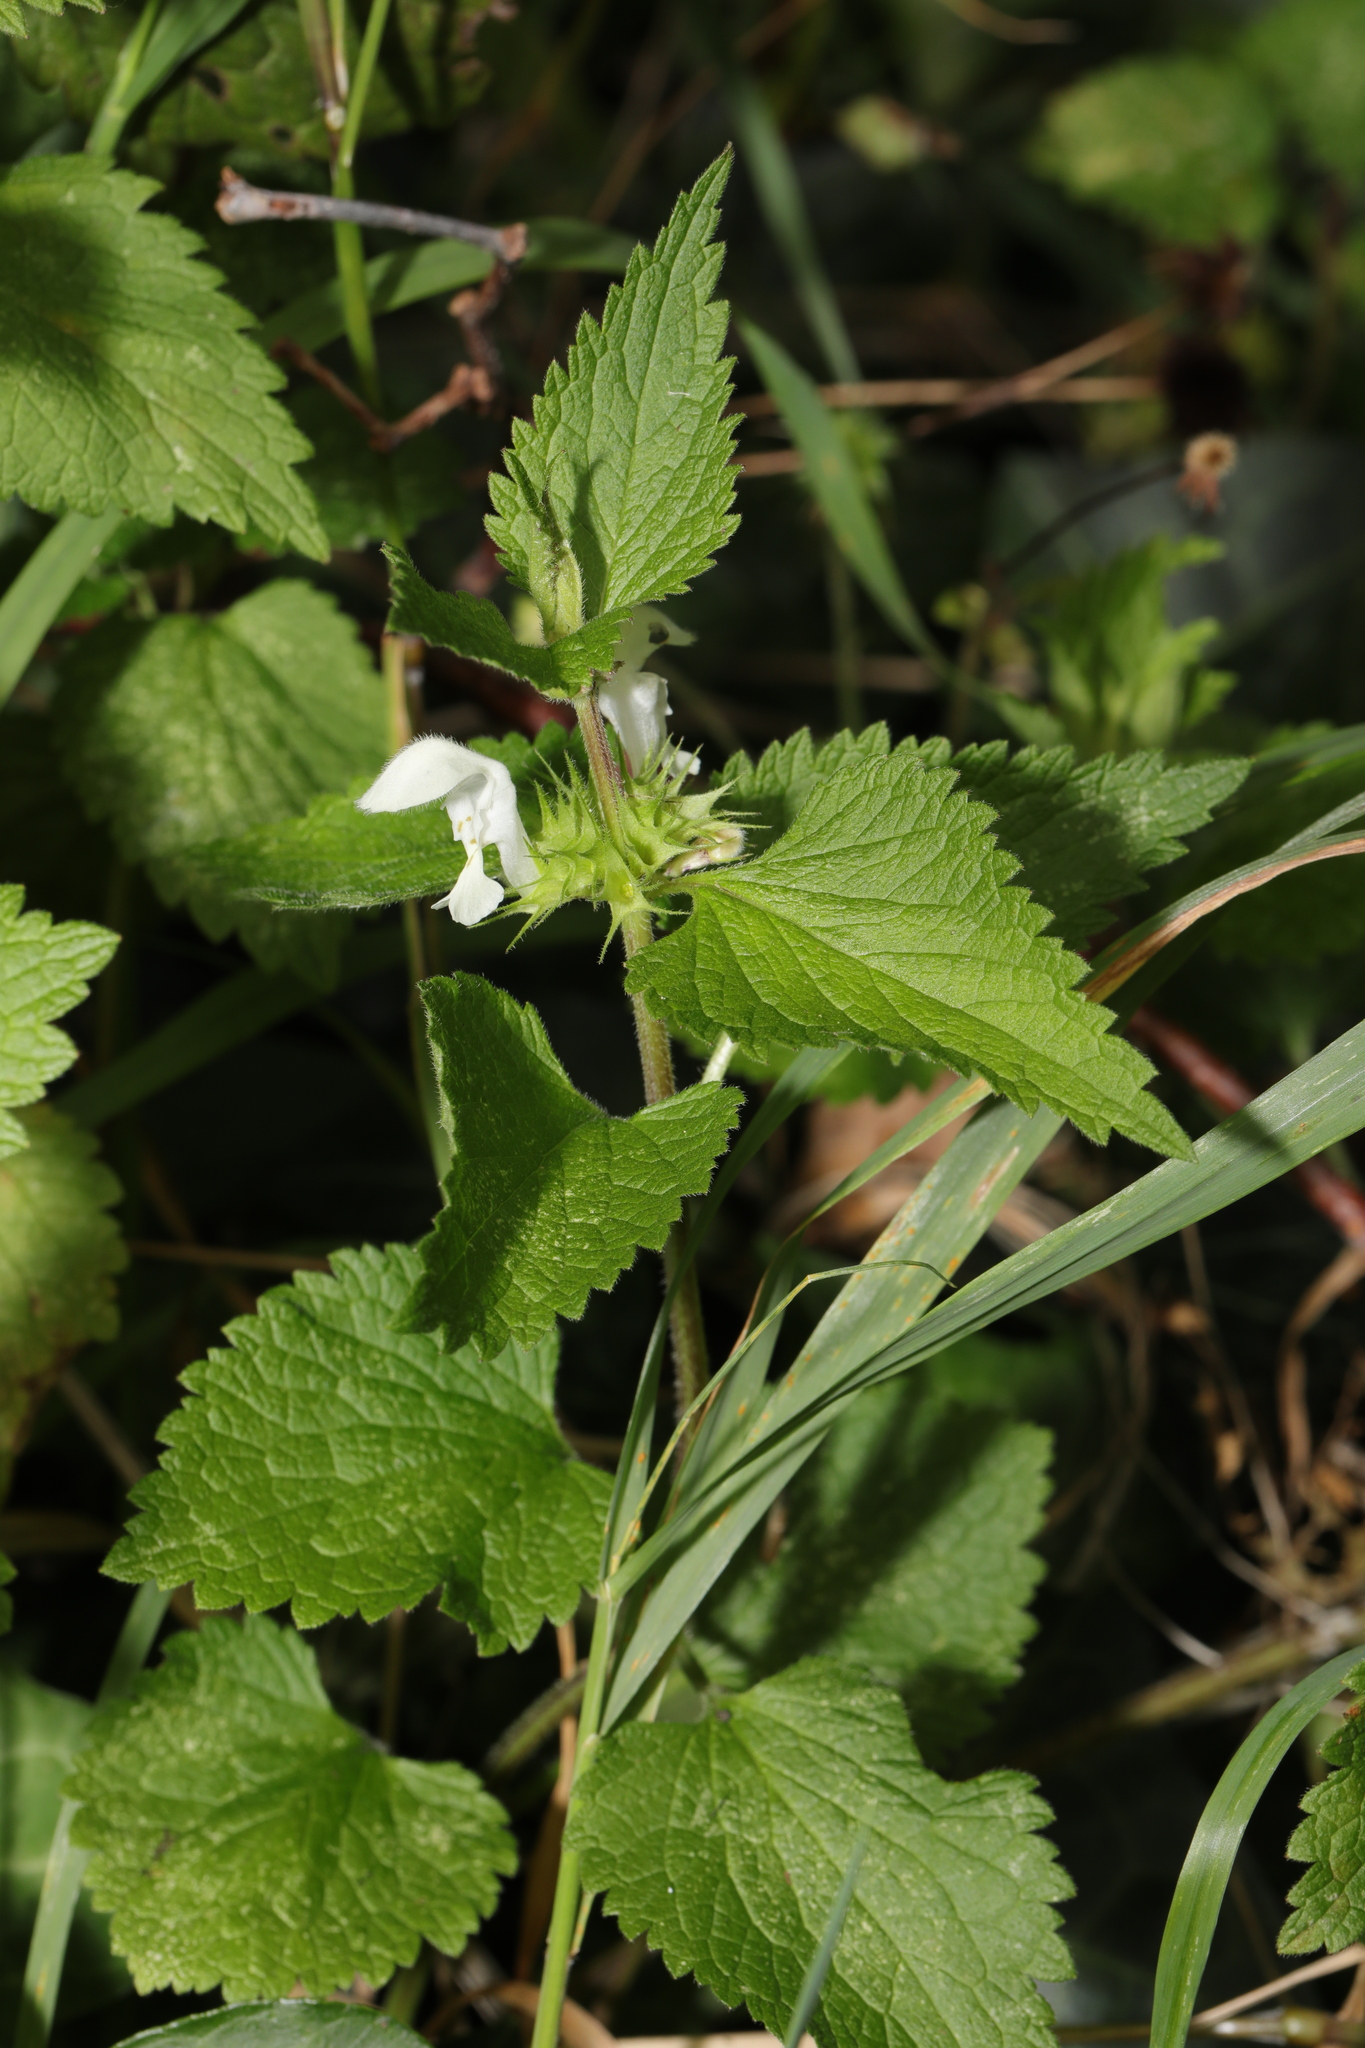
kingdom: Plantae
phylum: Tracheophyta
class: Magnoliopsida
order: Lamiales
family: Lamiaceae
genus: Lamium
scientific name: Lamium album
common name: White dead-nettle
